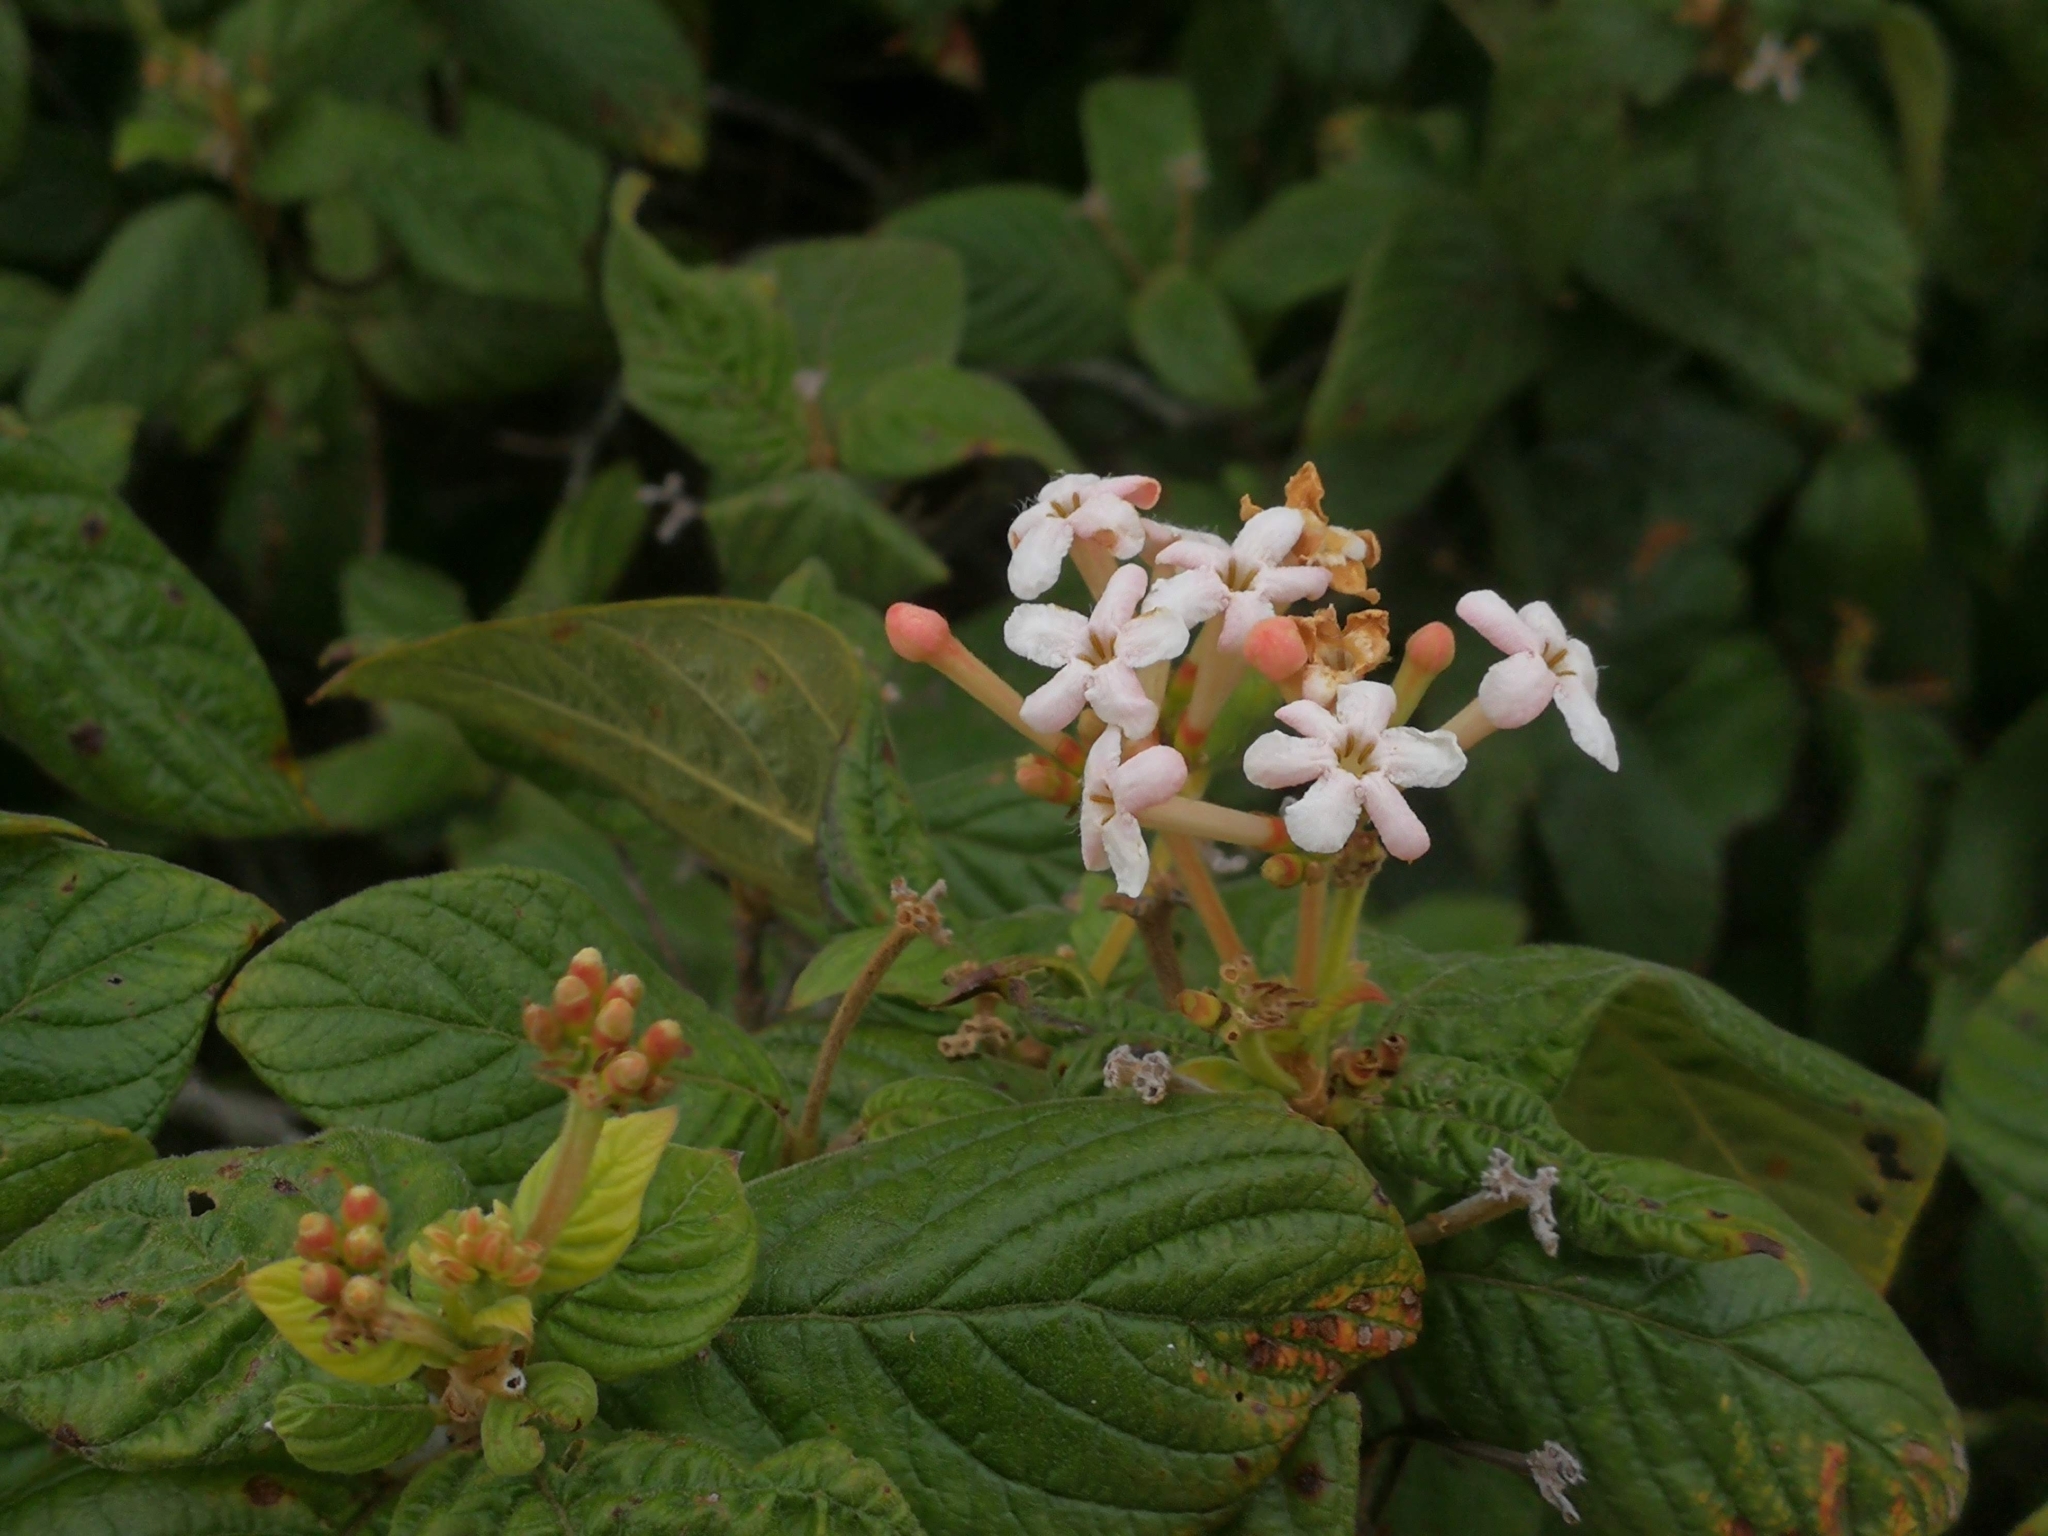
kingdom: Plantae
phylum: Tracheophyta
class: Magnoliopsida
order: Gentianales
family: Rubiaceae
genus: Guettarda
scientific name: Guettarda uruguensis
